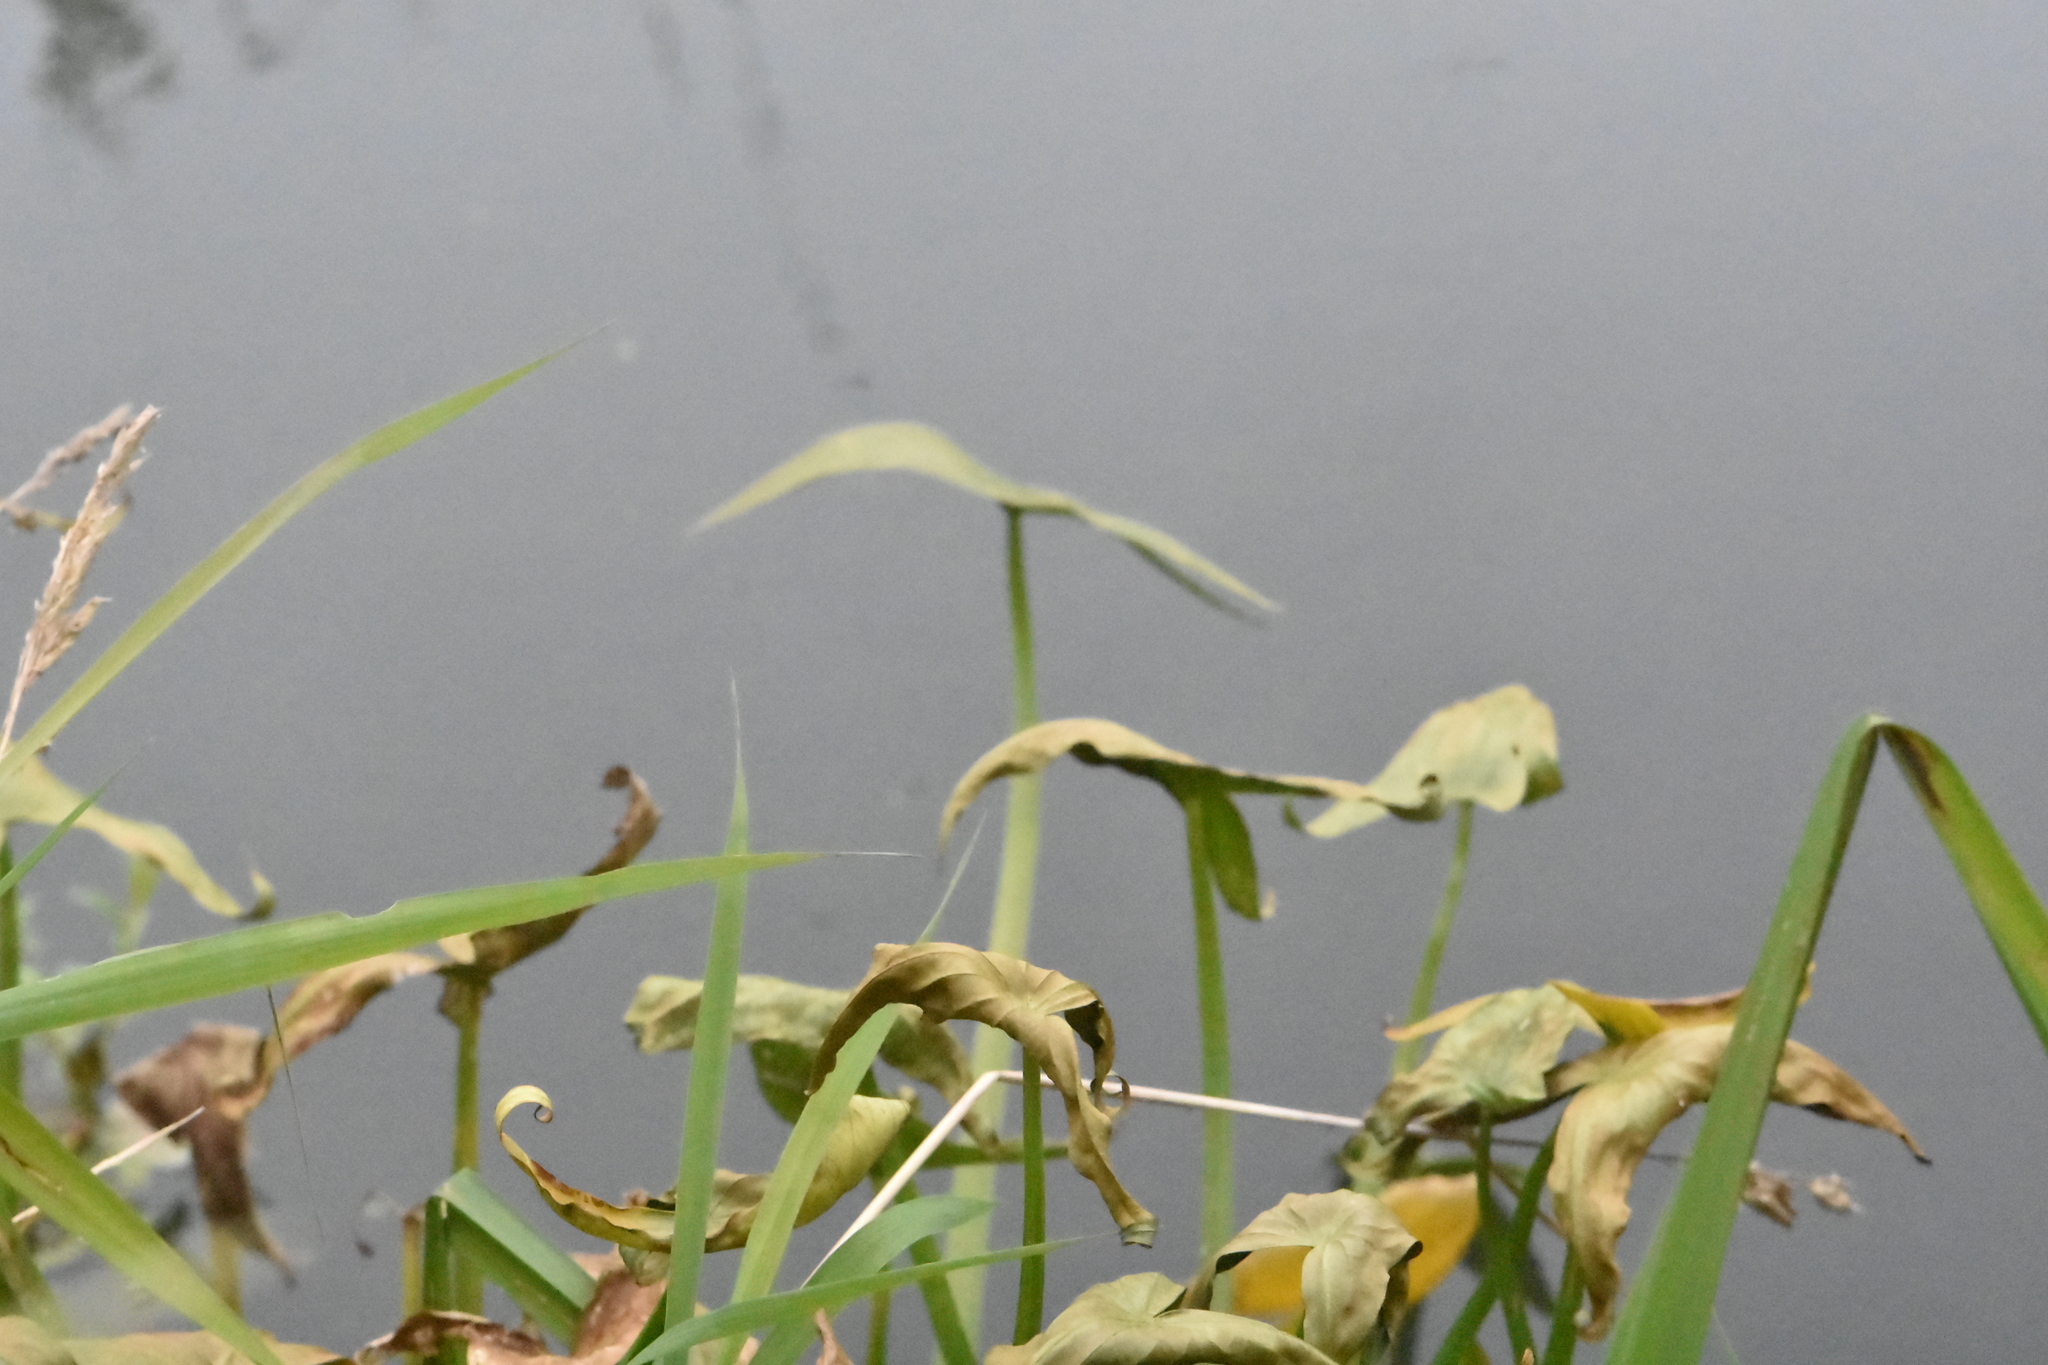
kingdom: Plantae
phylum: Tracheophyta
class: Liliopsida
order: Alismatales
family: Alismataceae
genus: Sagittaria
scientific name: Sagittaria sagittifolia
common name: Arrowhead
